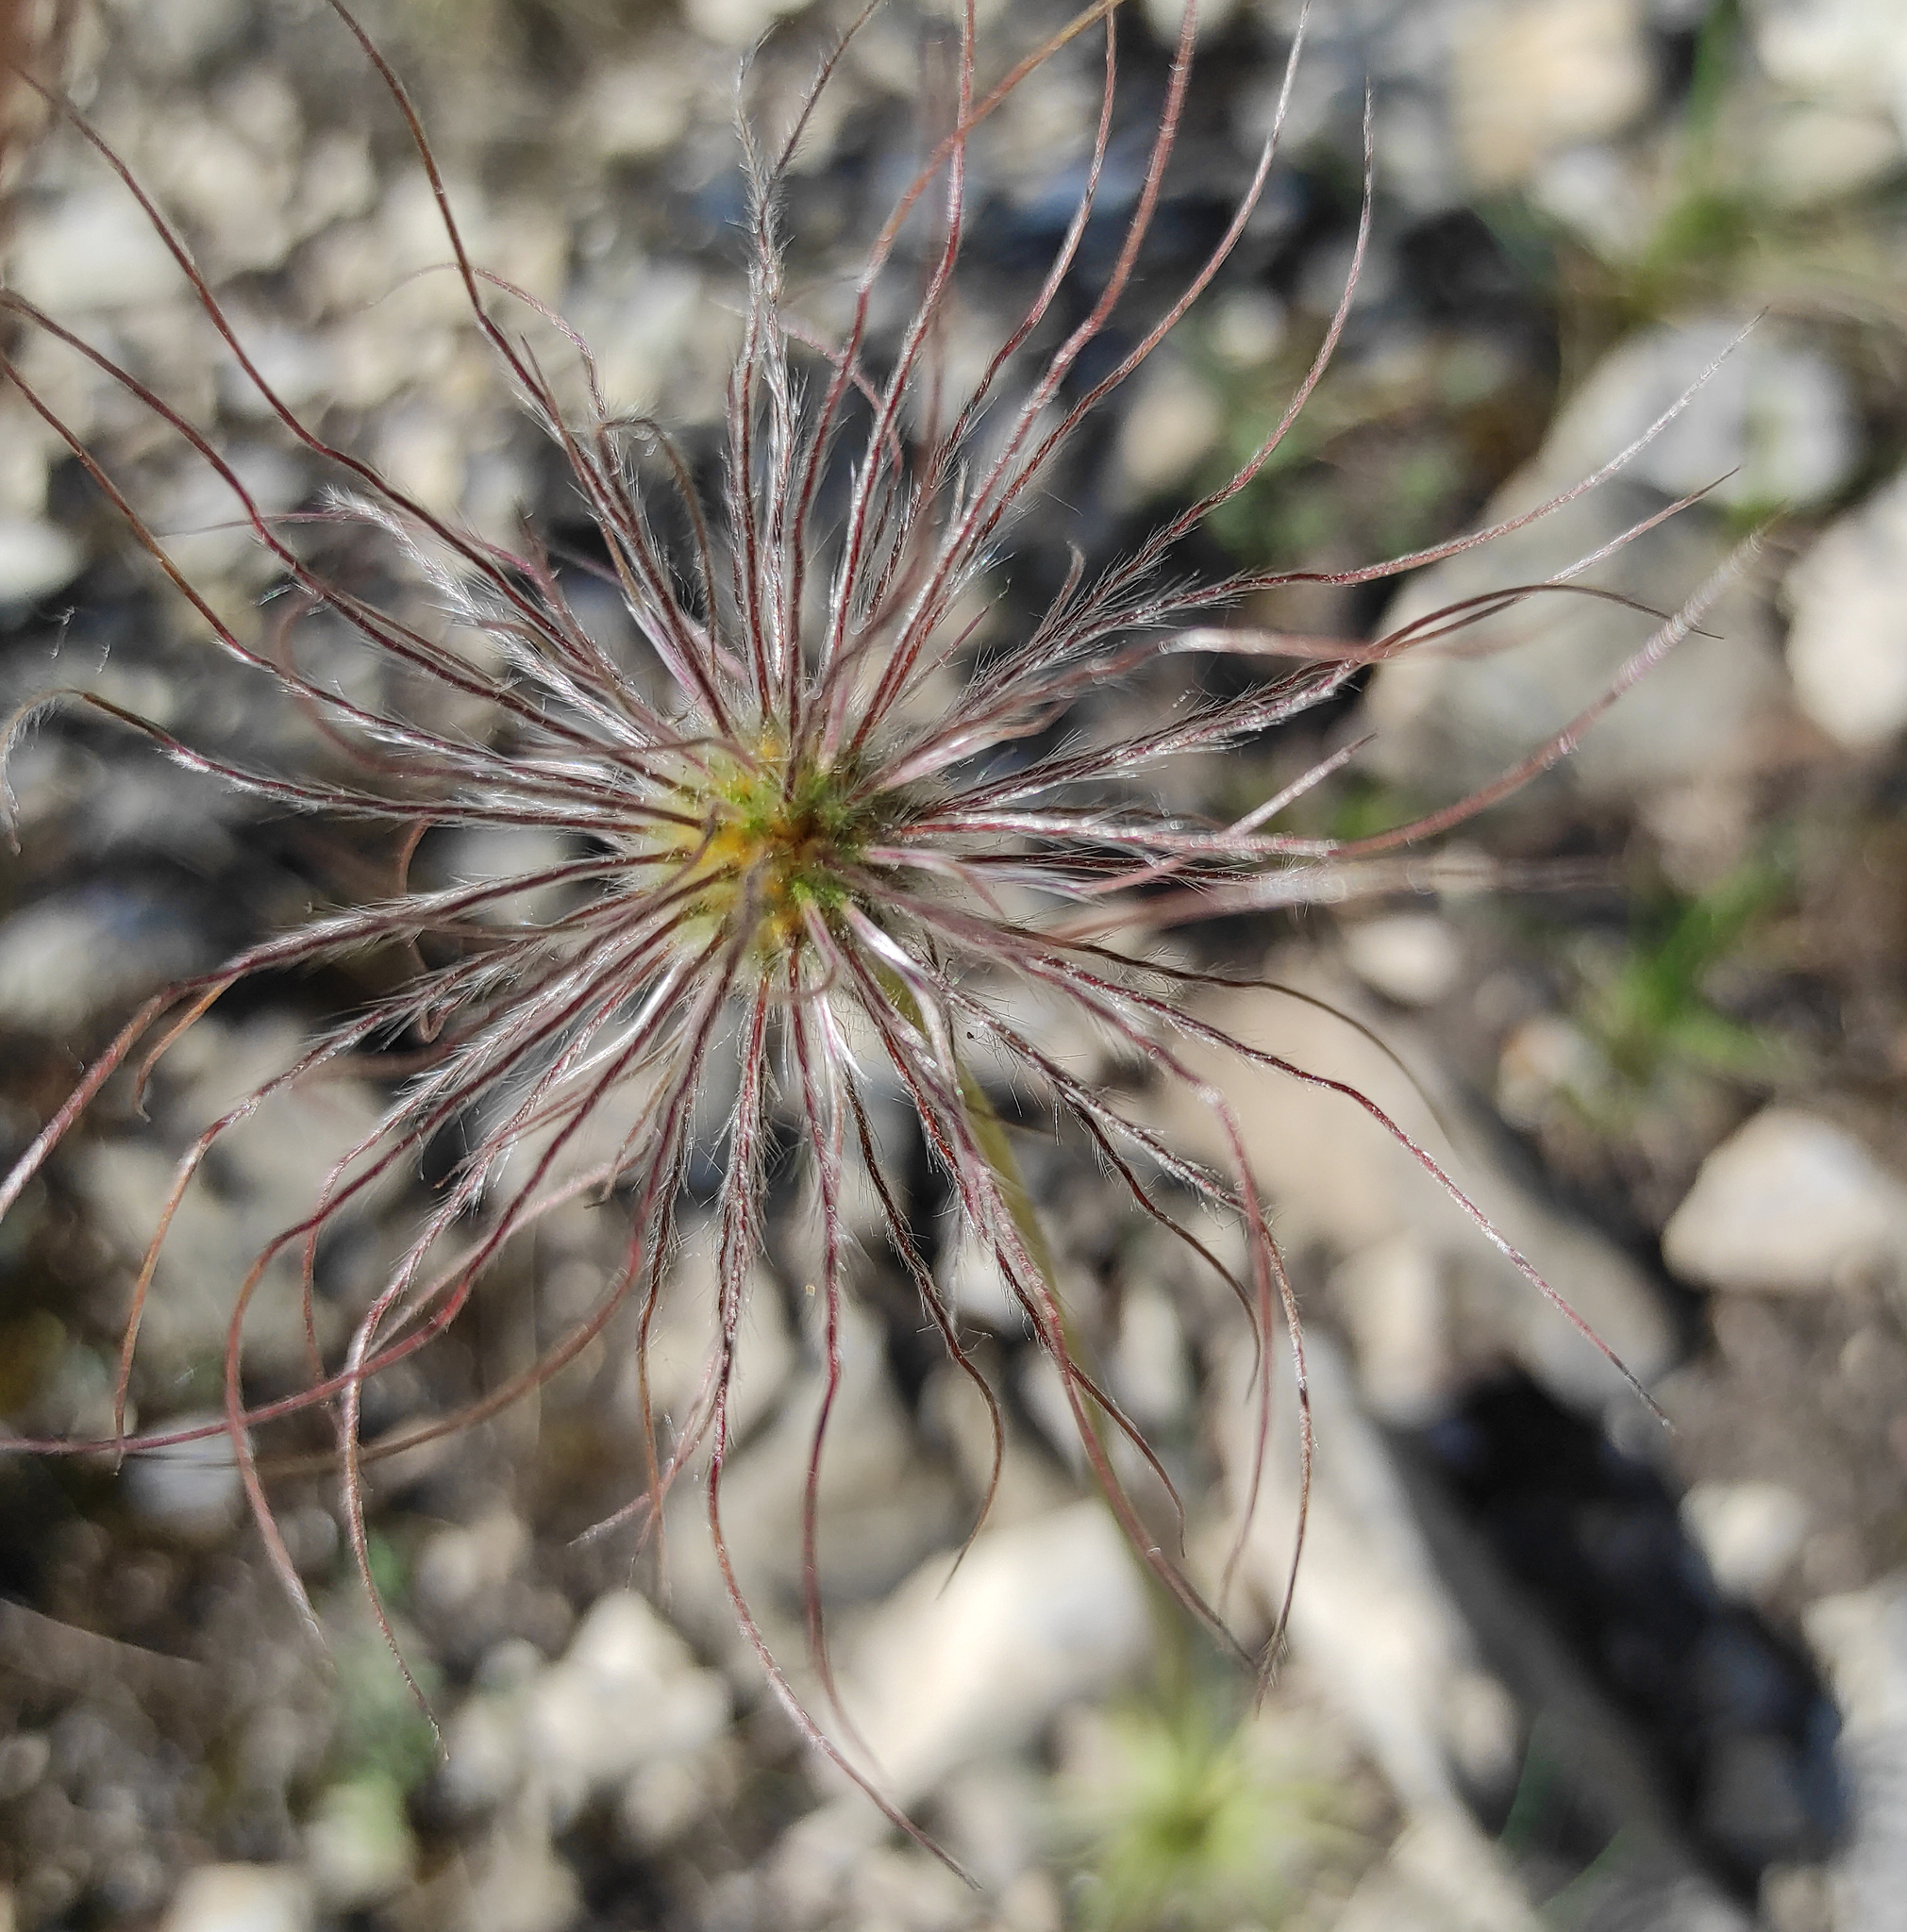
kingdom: Plantae
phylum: Tracheophyta
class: Magnoliopsida
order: Ranunculales
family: Ranunculaceae
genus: Pulsatilla
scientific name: Pulsatilla patens
